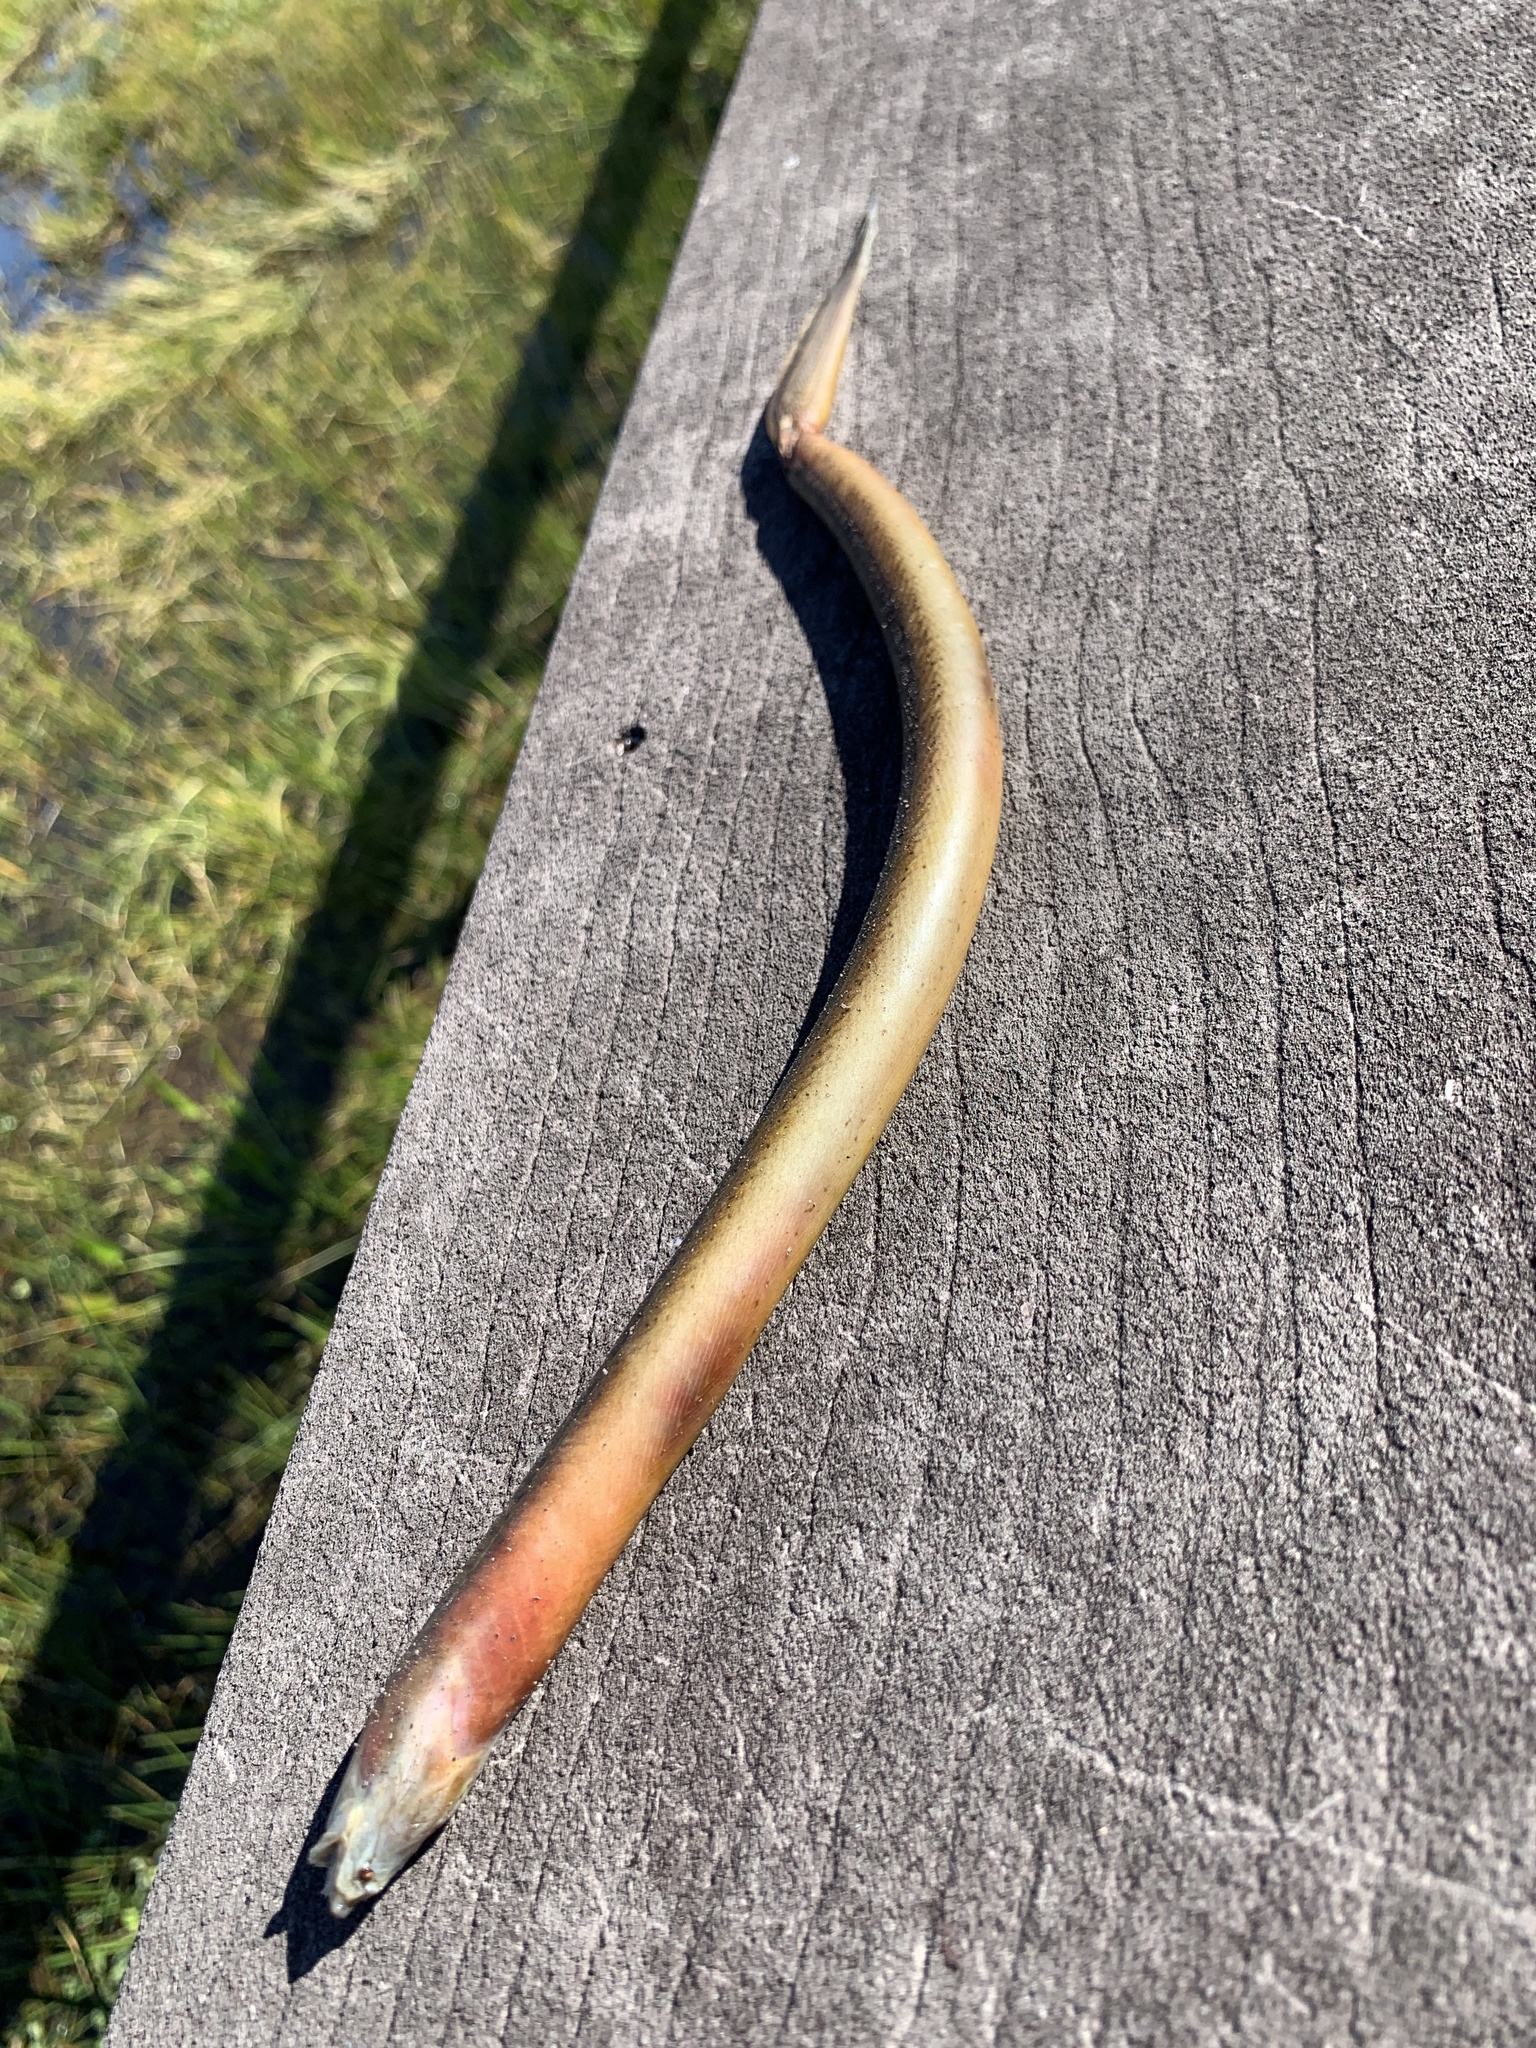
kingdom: Animalia
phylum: Chordata
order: Synbranchiformes
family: Synbranchidae
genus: Monopterus
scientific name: Monopterus
